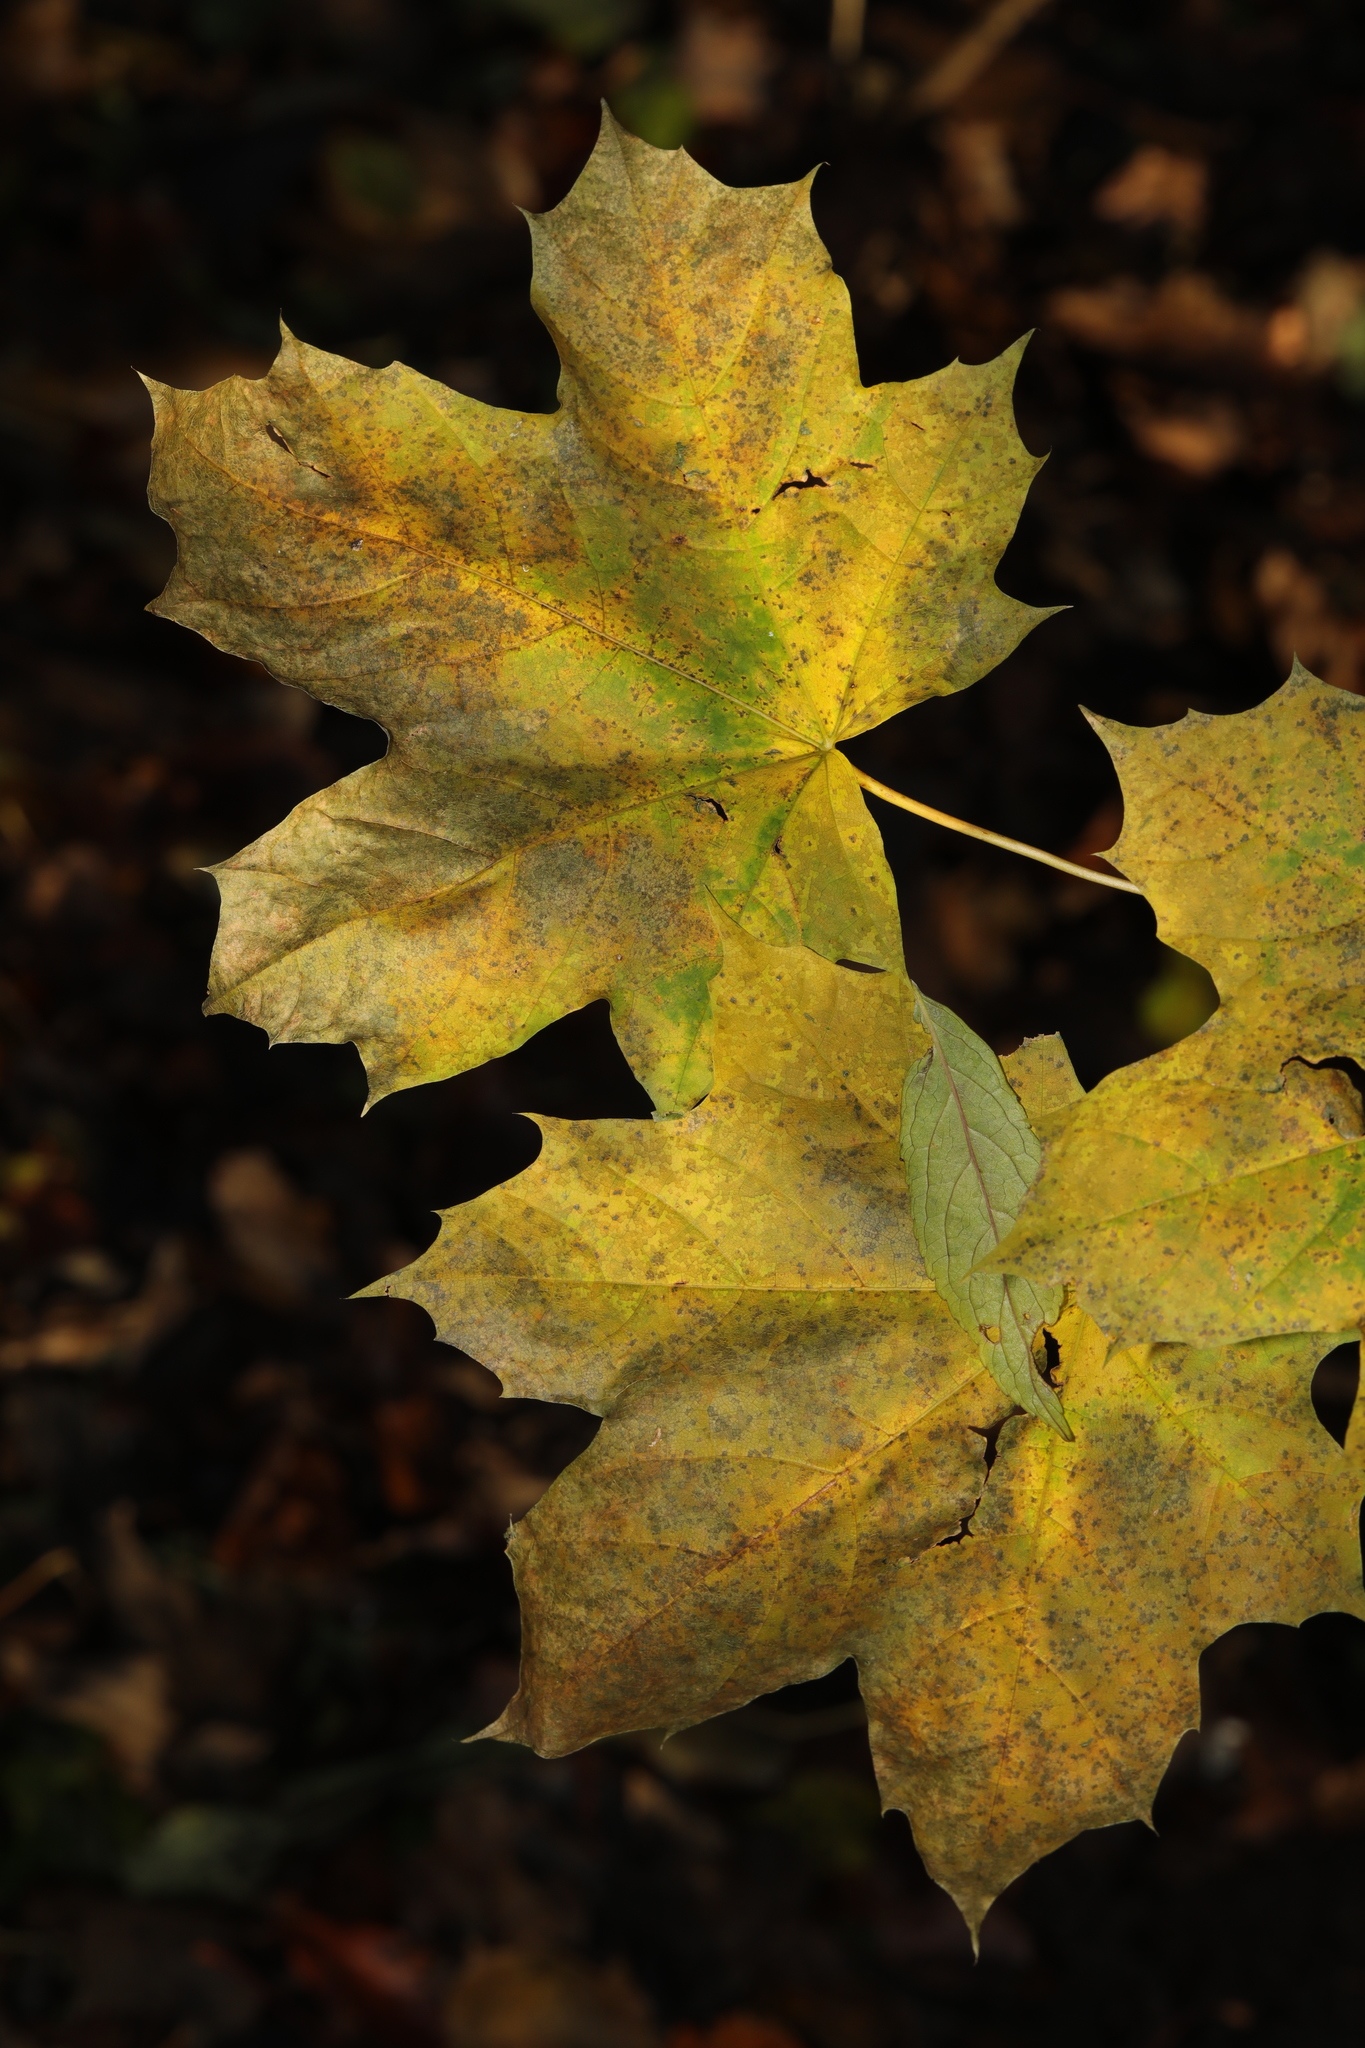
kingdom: Plantae
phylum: Tracheophyta
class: Magnoliopsida
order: Sapindales
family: Sapindaceae
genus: Acer
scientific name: Acer platanoides
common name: Norway maple
